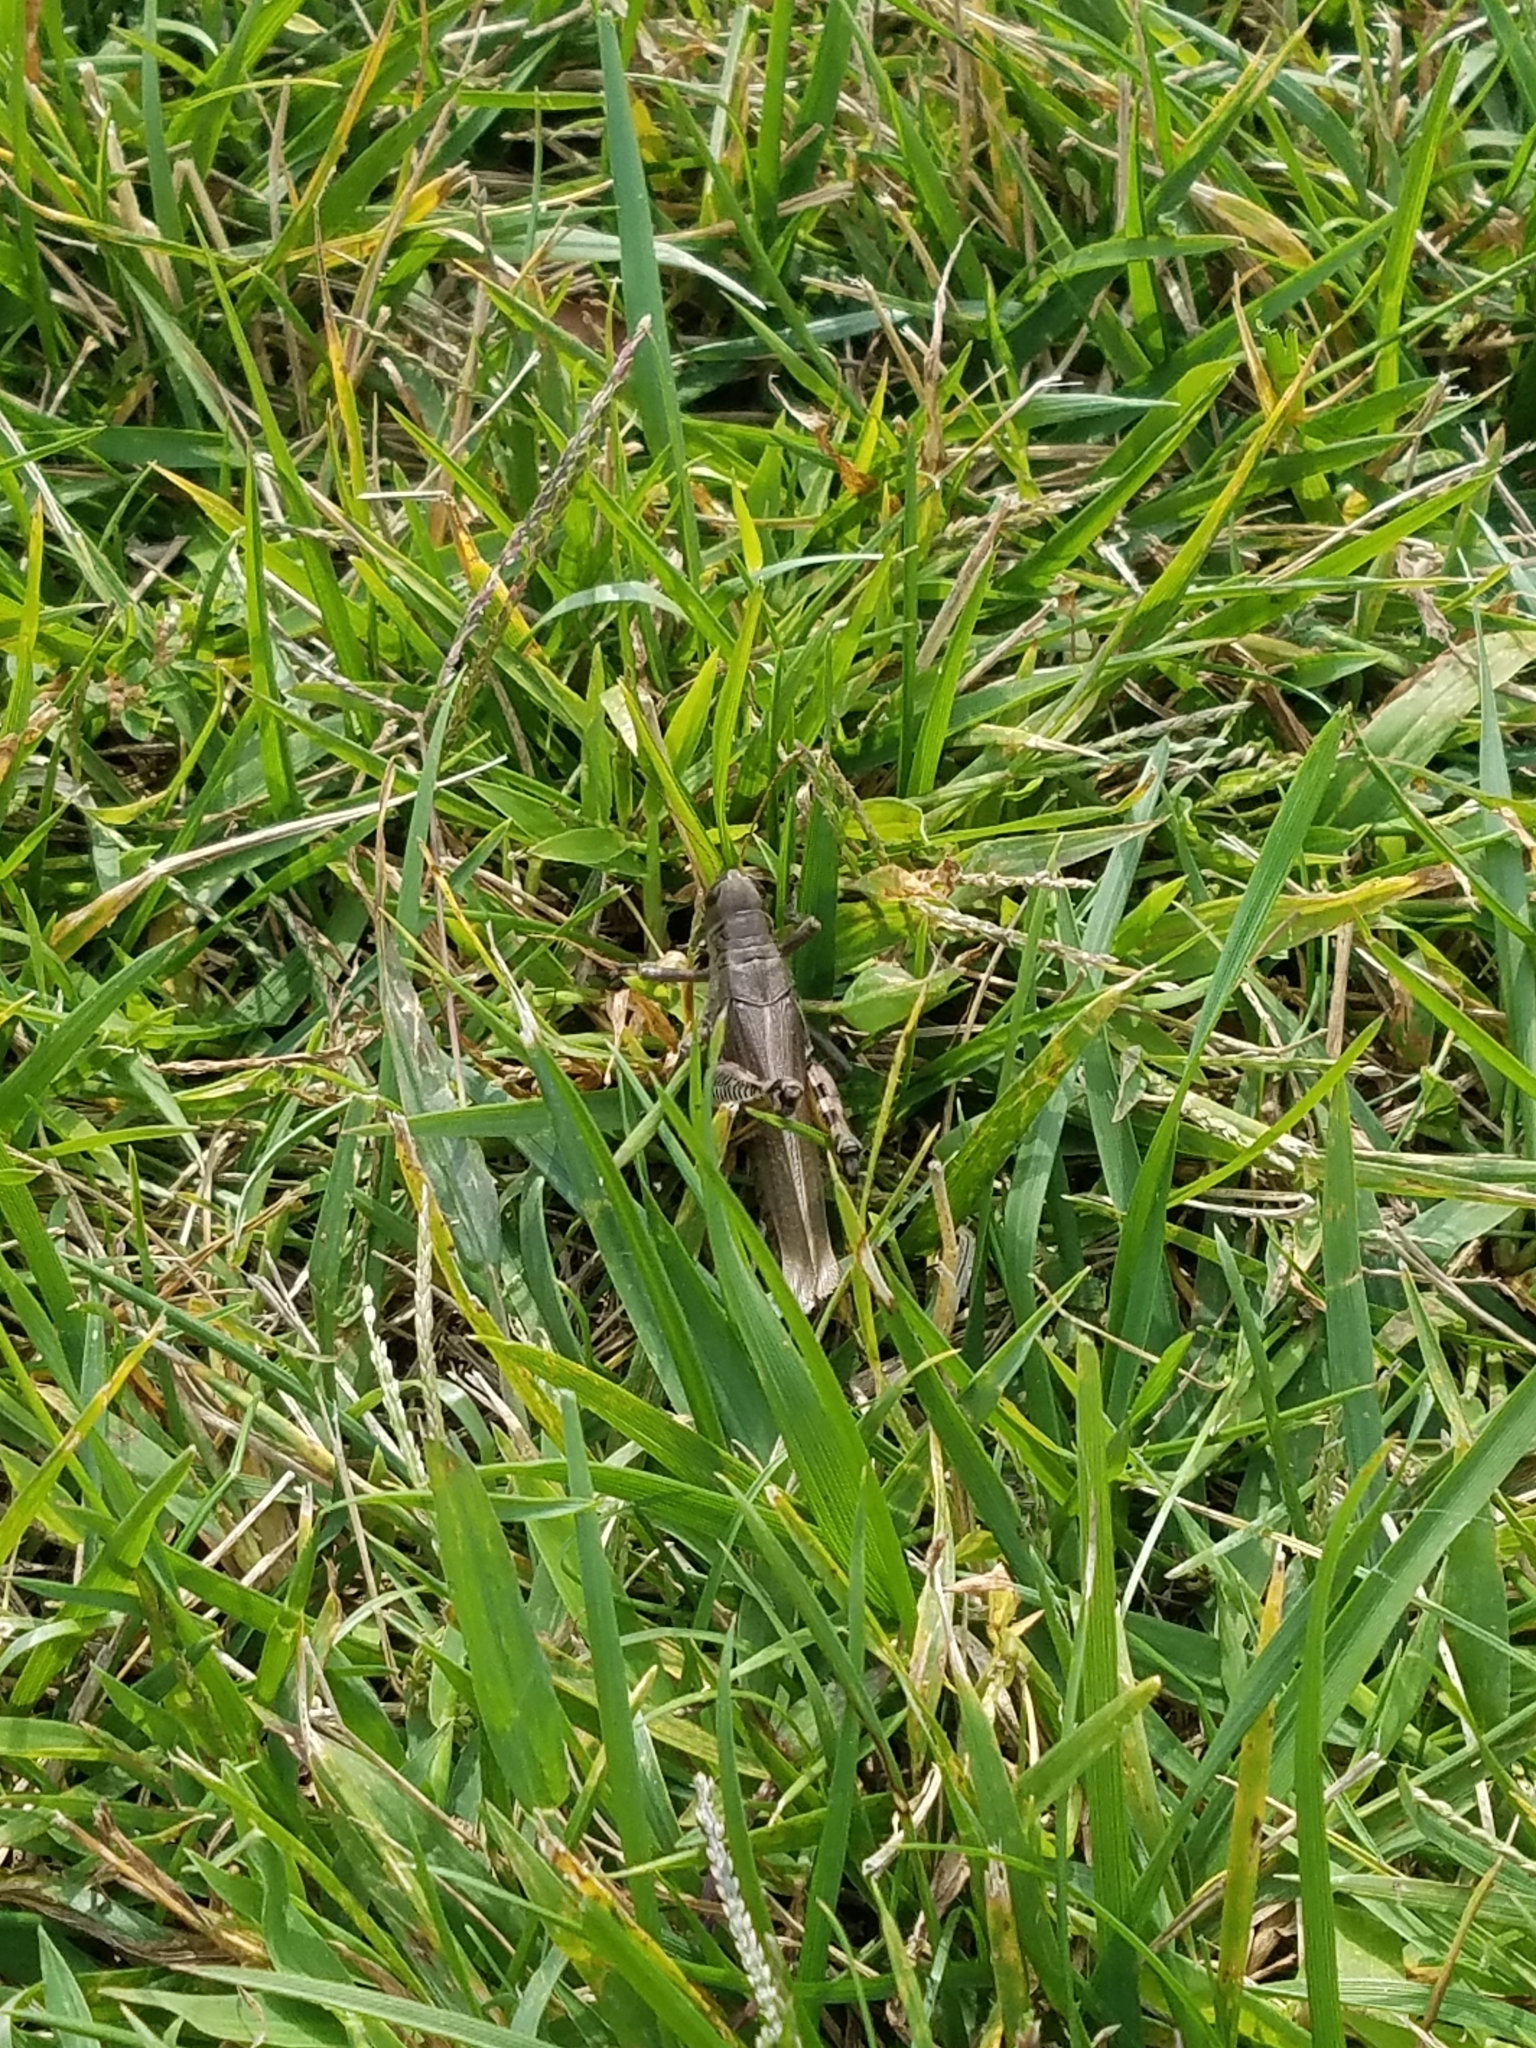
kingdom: Animalia
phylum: Arthropoda
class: Insecta
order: Orthoptera
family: Acrididae
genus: Melanoplus
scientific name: Melanoplus differentialis
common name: Differential grasshopper
